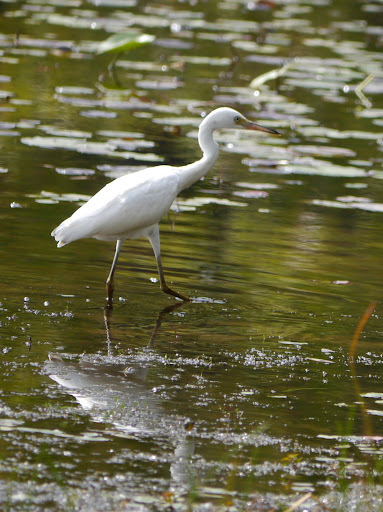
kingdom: Animalia
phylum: Chordata
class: Aves
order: Pelecaniformes
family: Ardeidae
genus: Egretta
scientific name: Egretta thula
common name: Snowy egret
